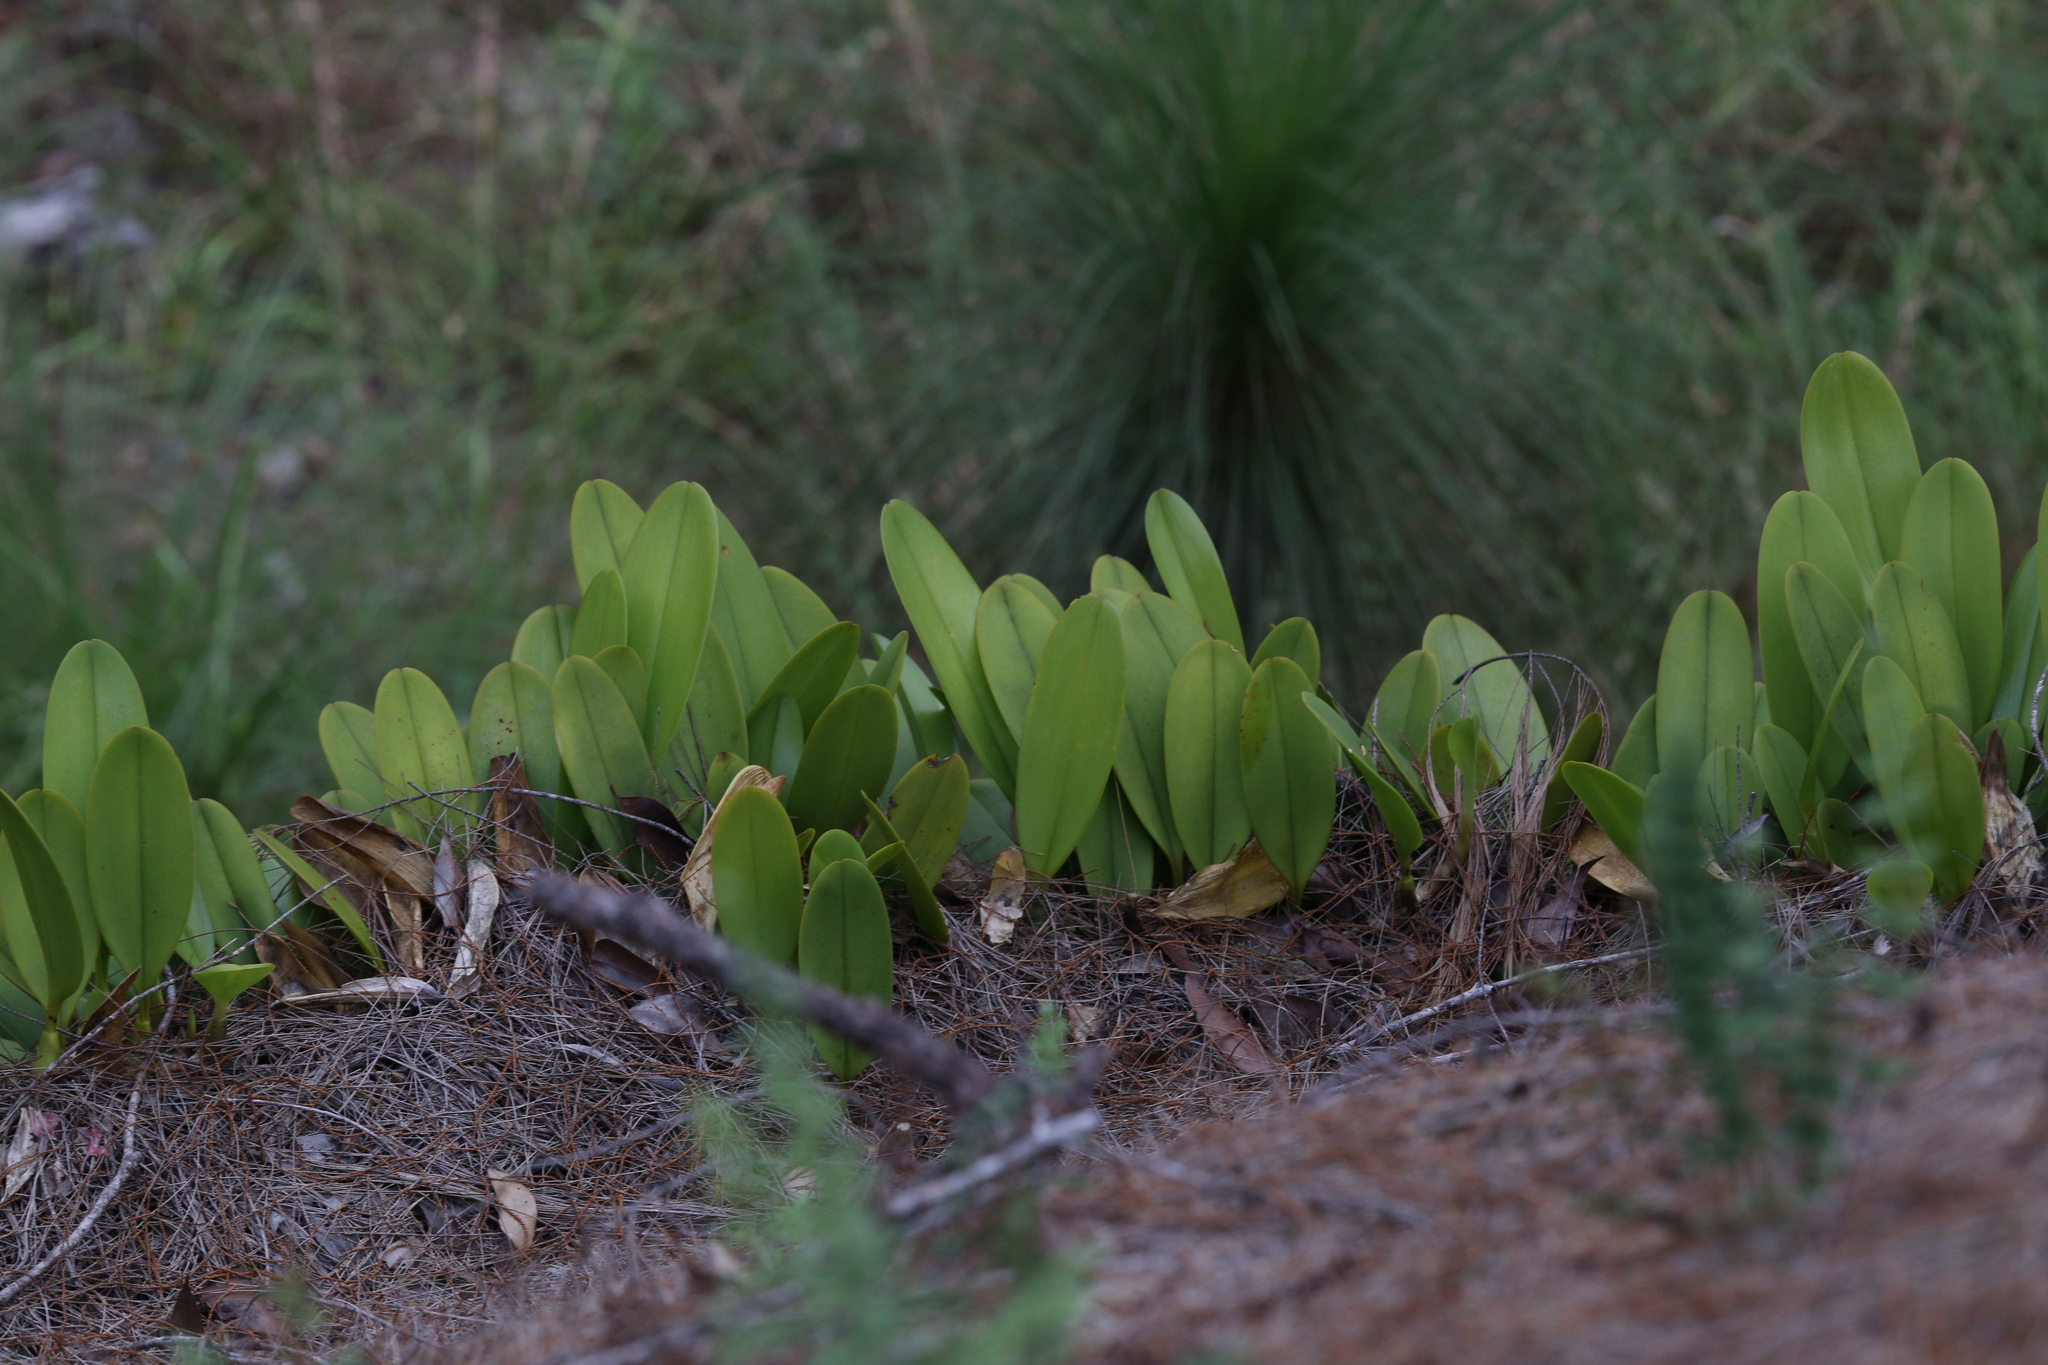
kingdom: Plantae
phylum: Tracheophyta
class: Liliopsida
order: Asparagales
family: Orchidaceae
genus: Bulbophyllum
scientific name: Bulbophyllum baileyi
